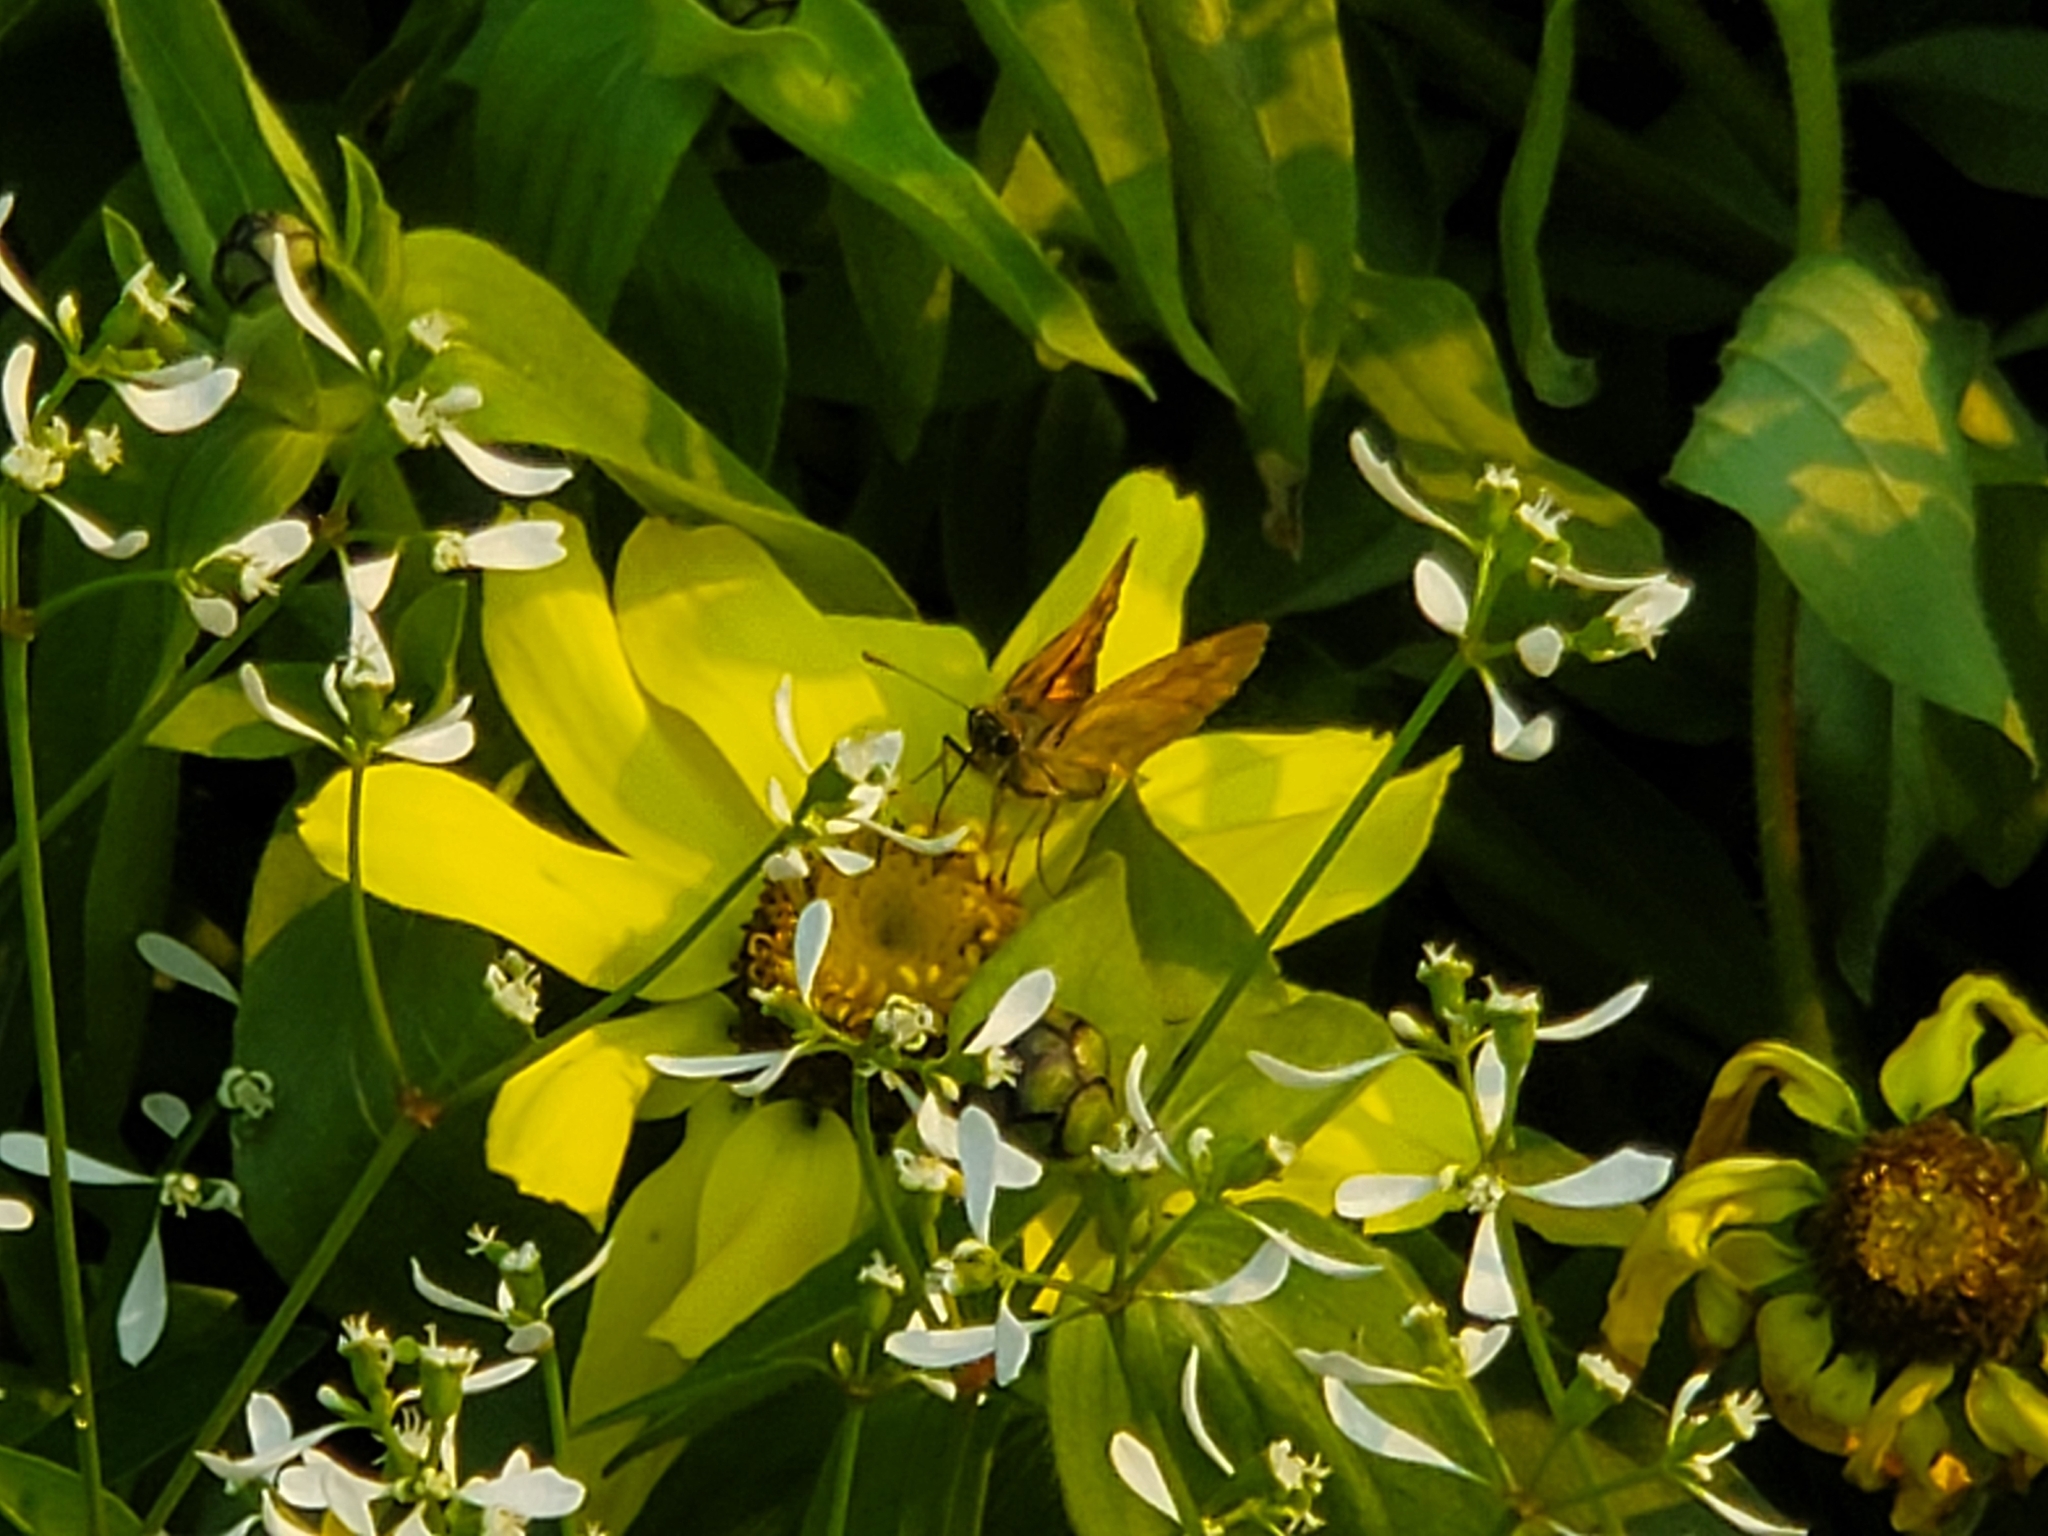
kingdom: Animalia
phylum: Arthropoda
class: Insecta
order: Lepidoptera
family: Hesperiidae
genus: Ochlodes
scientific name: Ochlodes sylvanoides
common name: Woodland skipper
